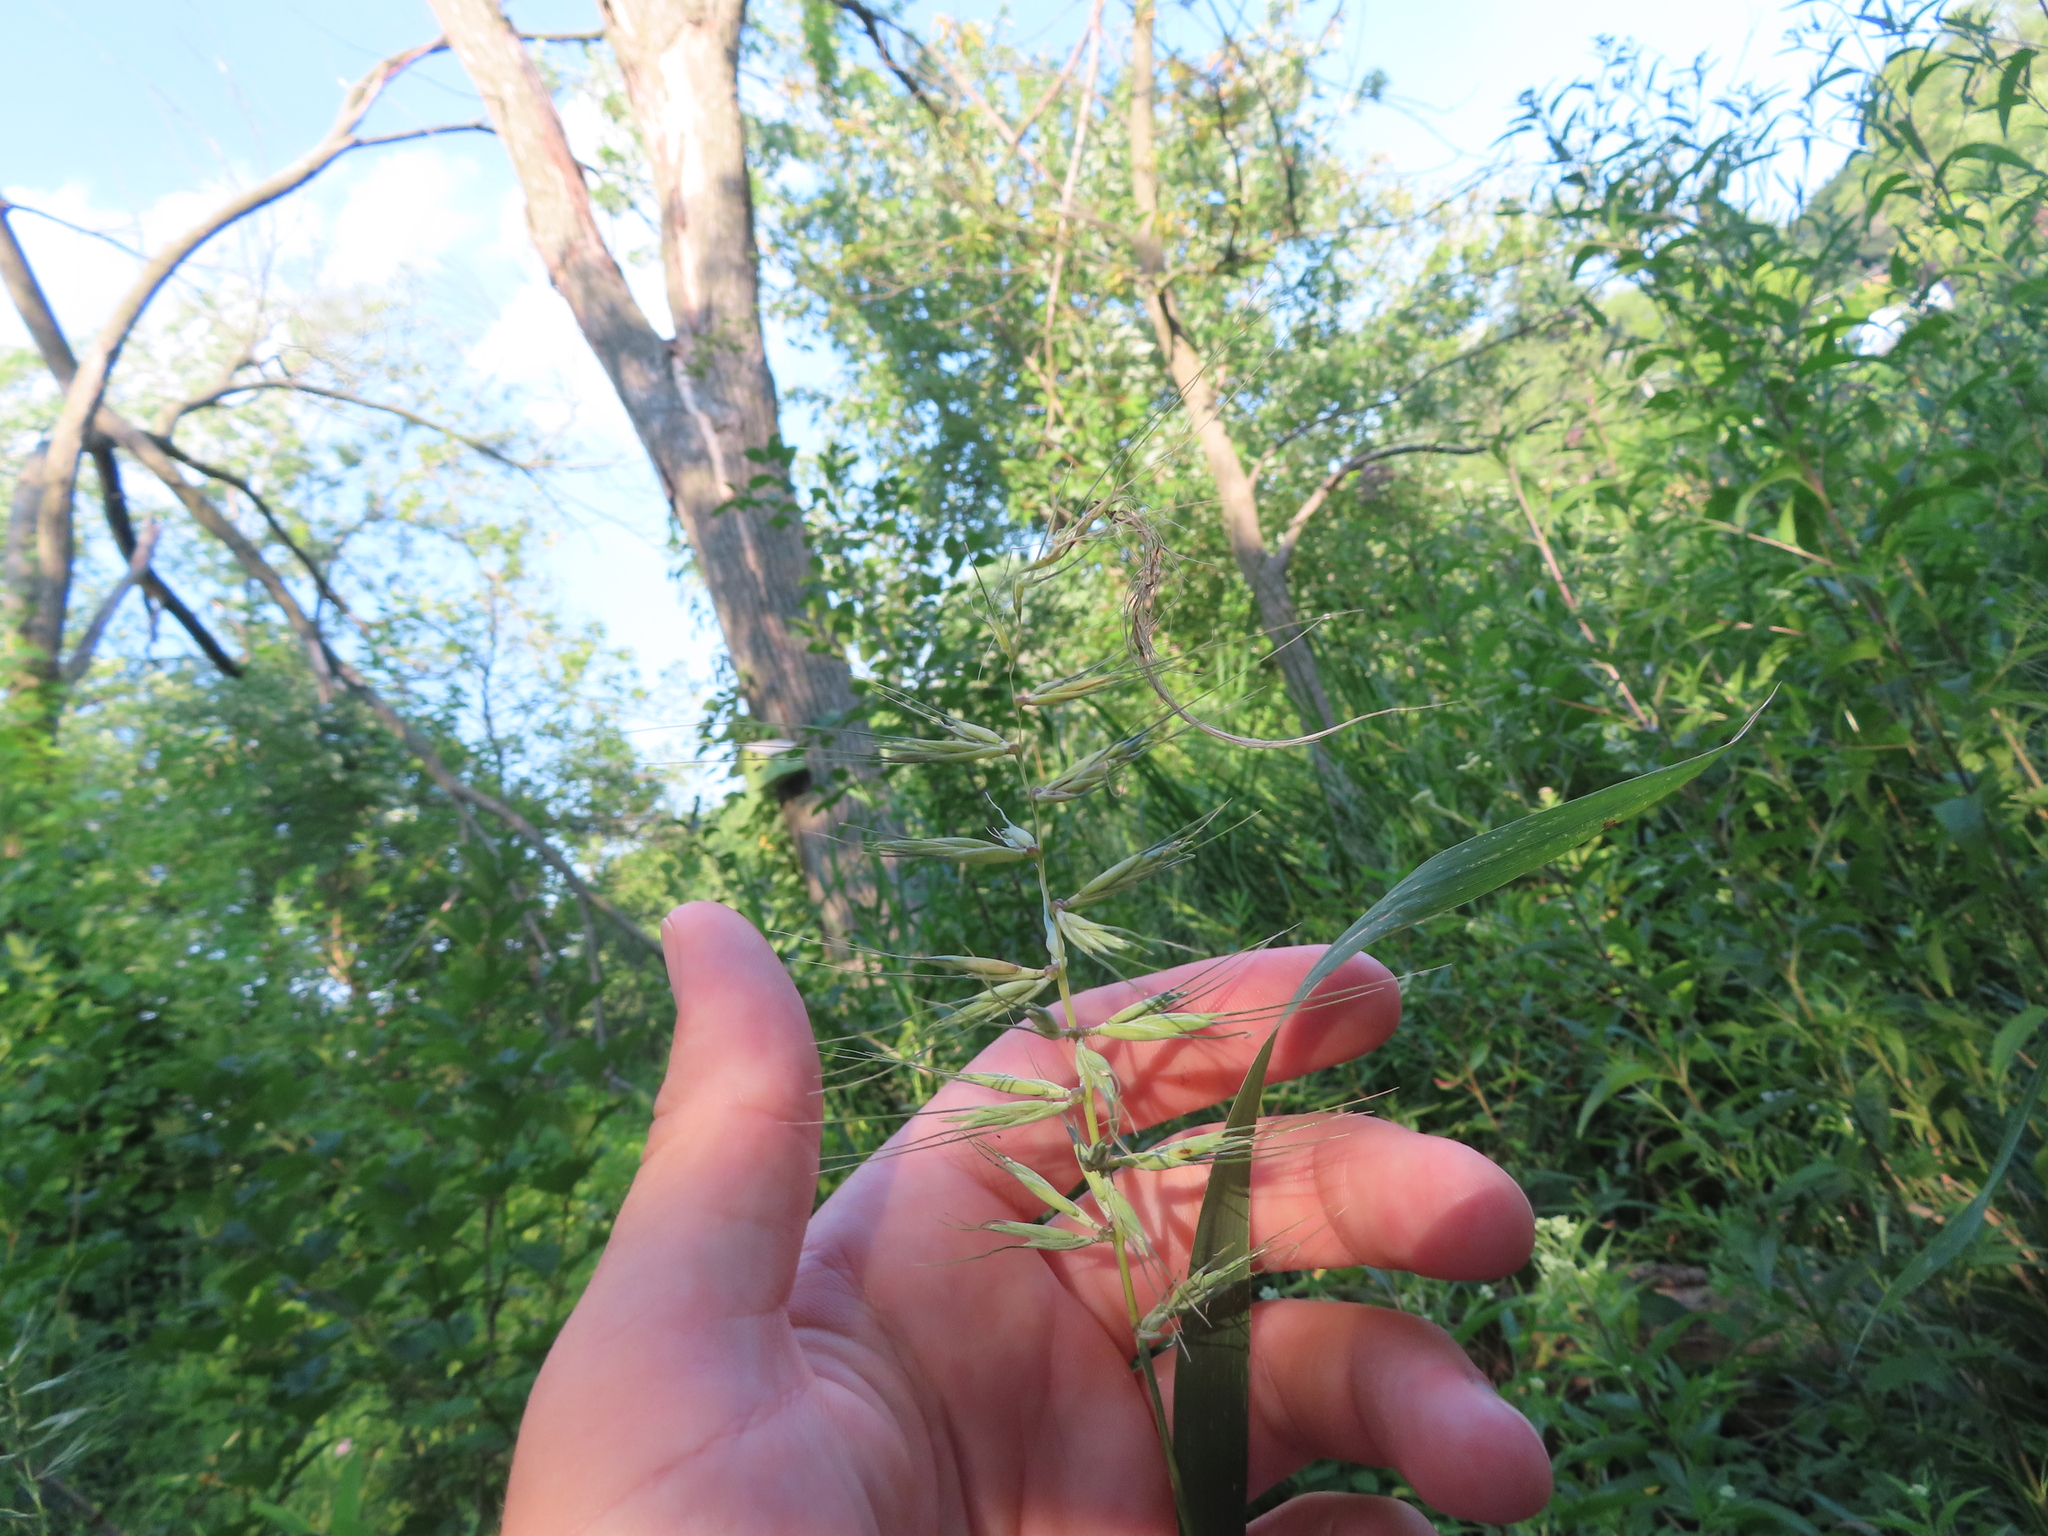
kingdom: Plantae
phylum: Tracheophyta
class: Liliopsida
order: Poales
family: Poaceae
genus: Elymus
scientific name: Elymus hystrix
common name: Bottlebrush grass
